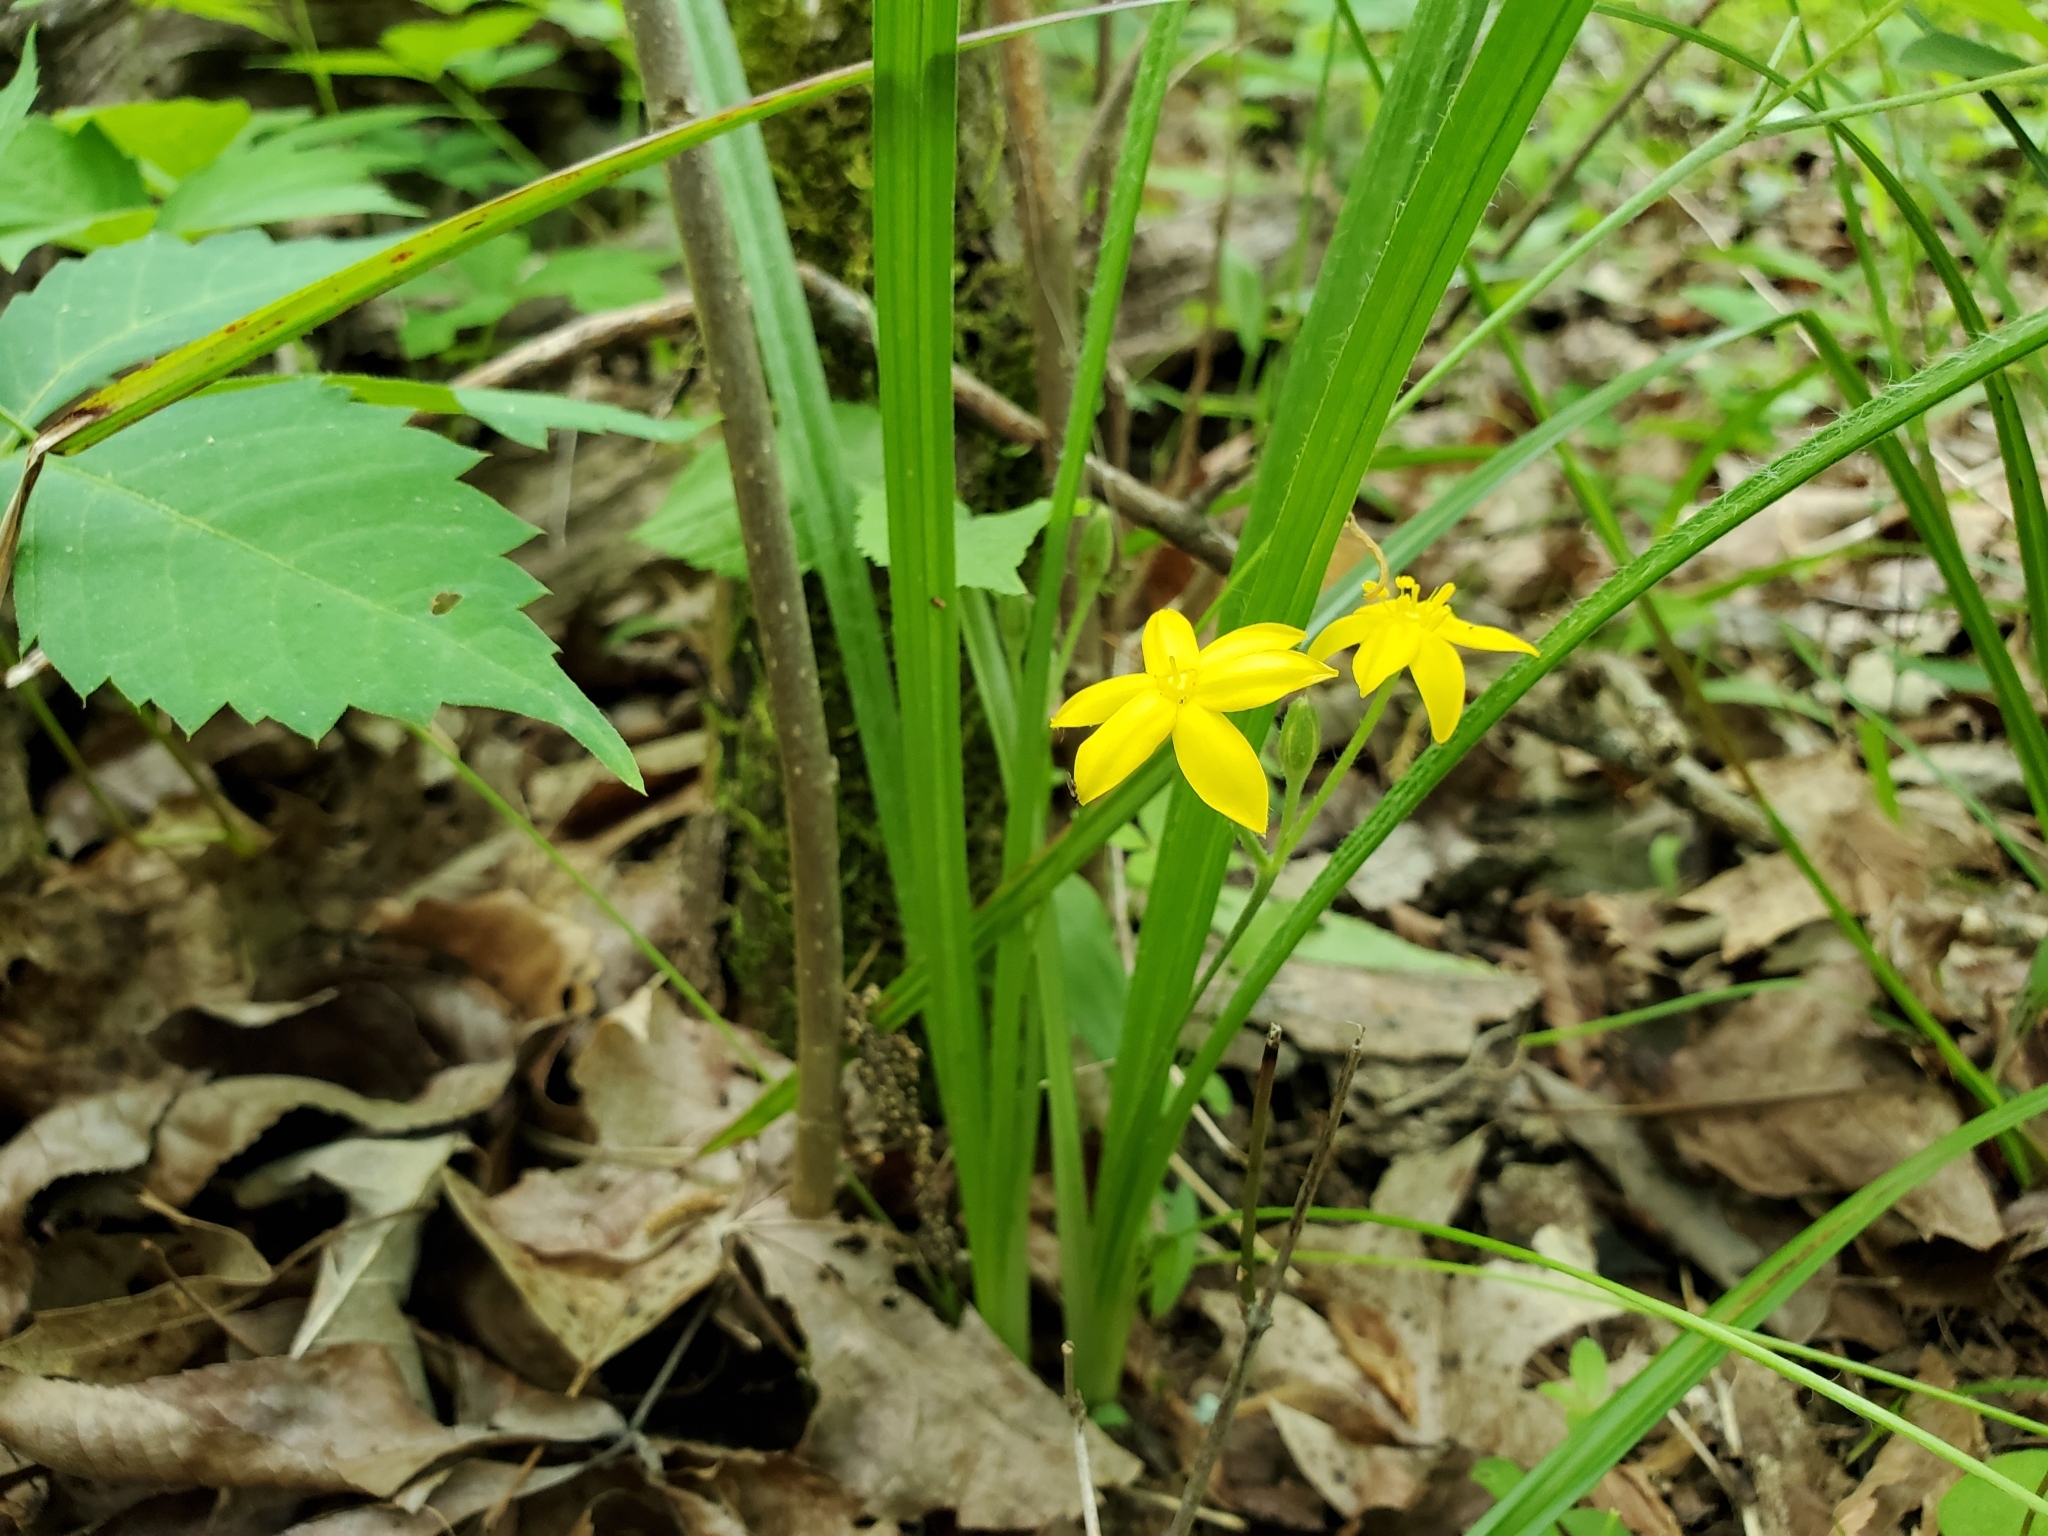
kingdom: Plantae
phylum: Tracheophyta
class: Liliopsida
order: Asparagales
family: Hypoxidaceae
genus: Hypoxis
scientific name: Hypoxis hirsuta
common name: Common goldstar
